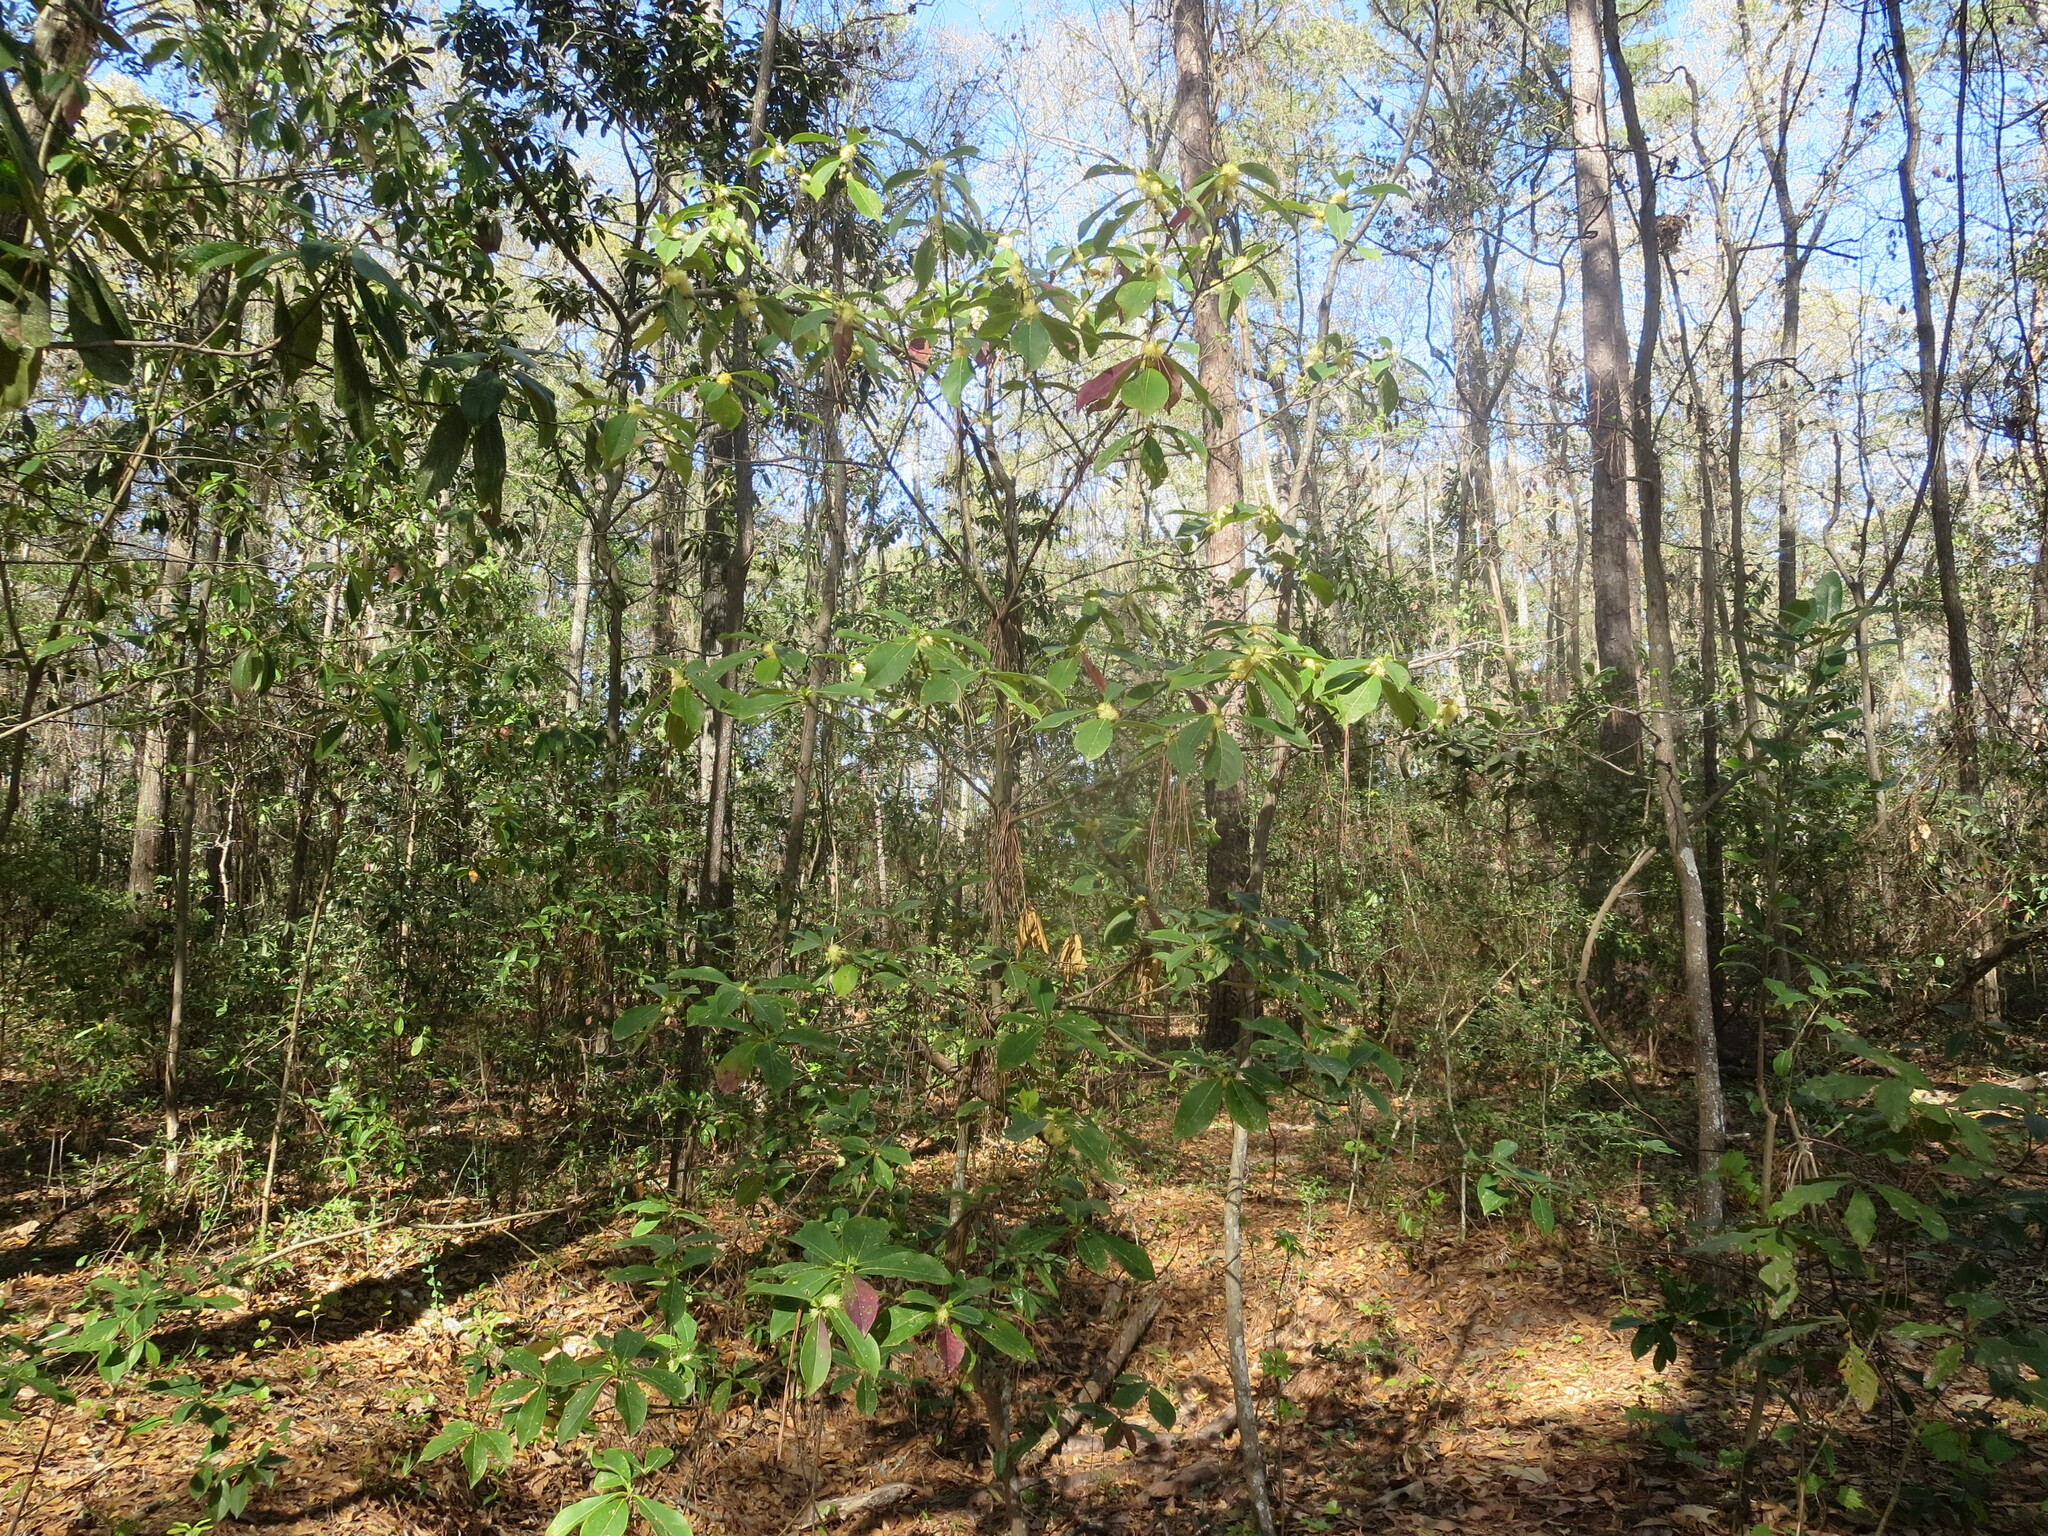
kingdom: Plantae
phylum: Tracheophyta
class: Magnoliopsida
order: Ericales
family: Symplocaceae
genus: Symplocos
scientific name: Symplocos tinctoria
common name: Horse-sugar
